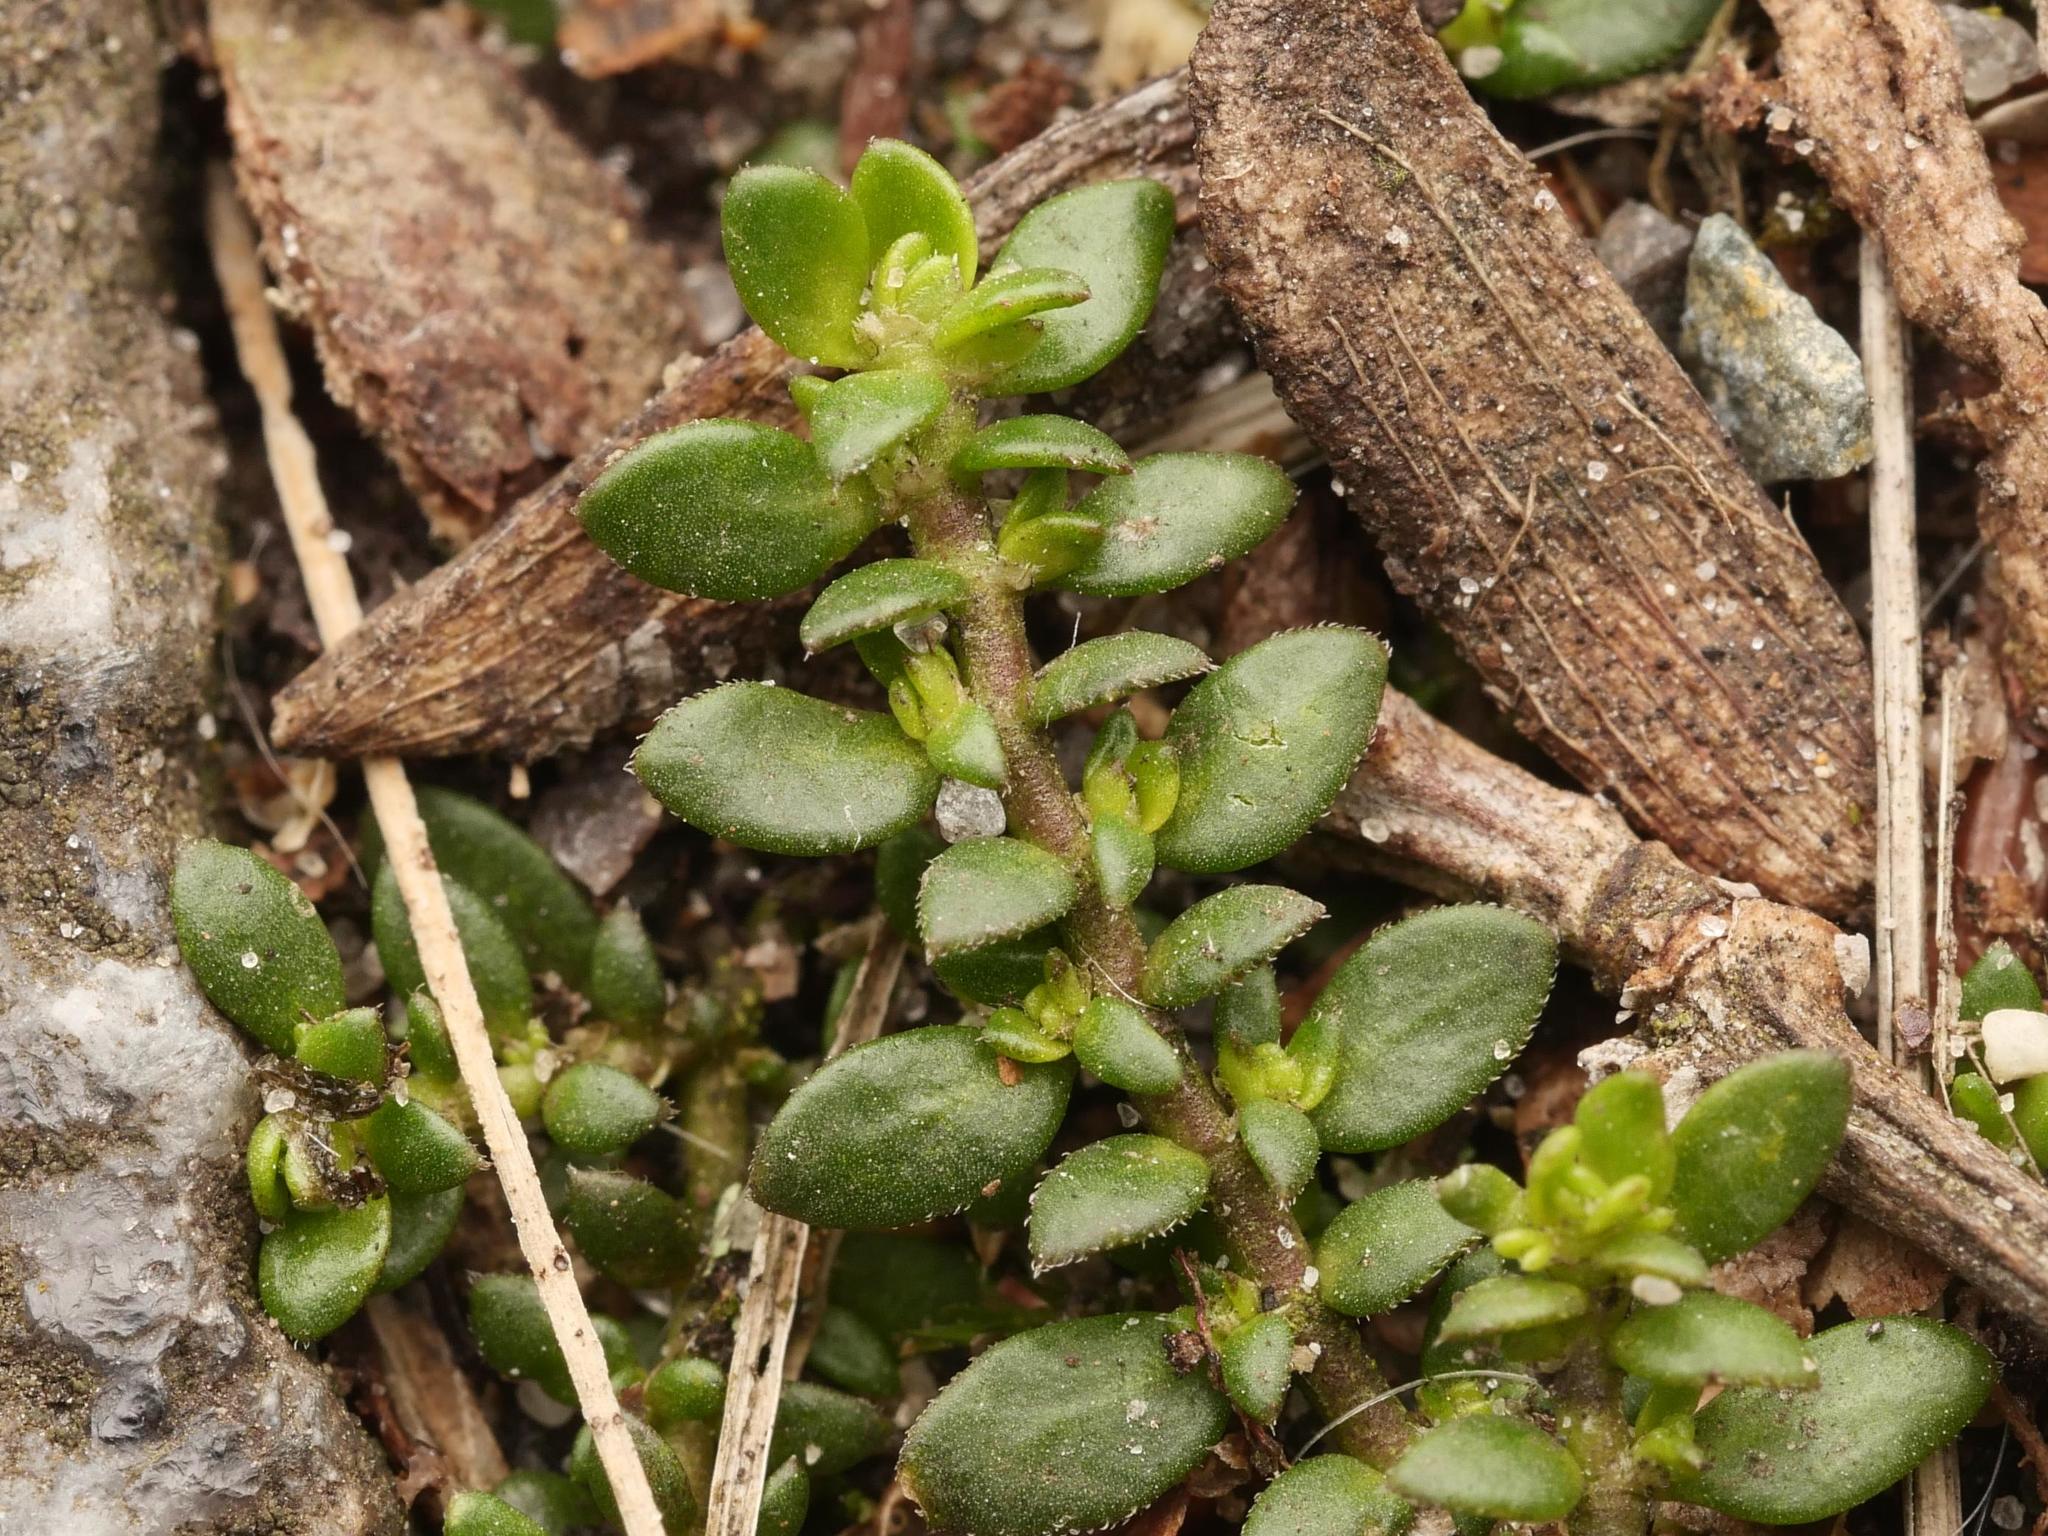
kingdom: Plantae
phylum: Tracheophyta
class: Magnoliopsida
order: Caryophyllales
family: Caryophyllaceae
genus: Herniaria
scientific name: Herniaria glabra
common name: Smooth rupturewort
